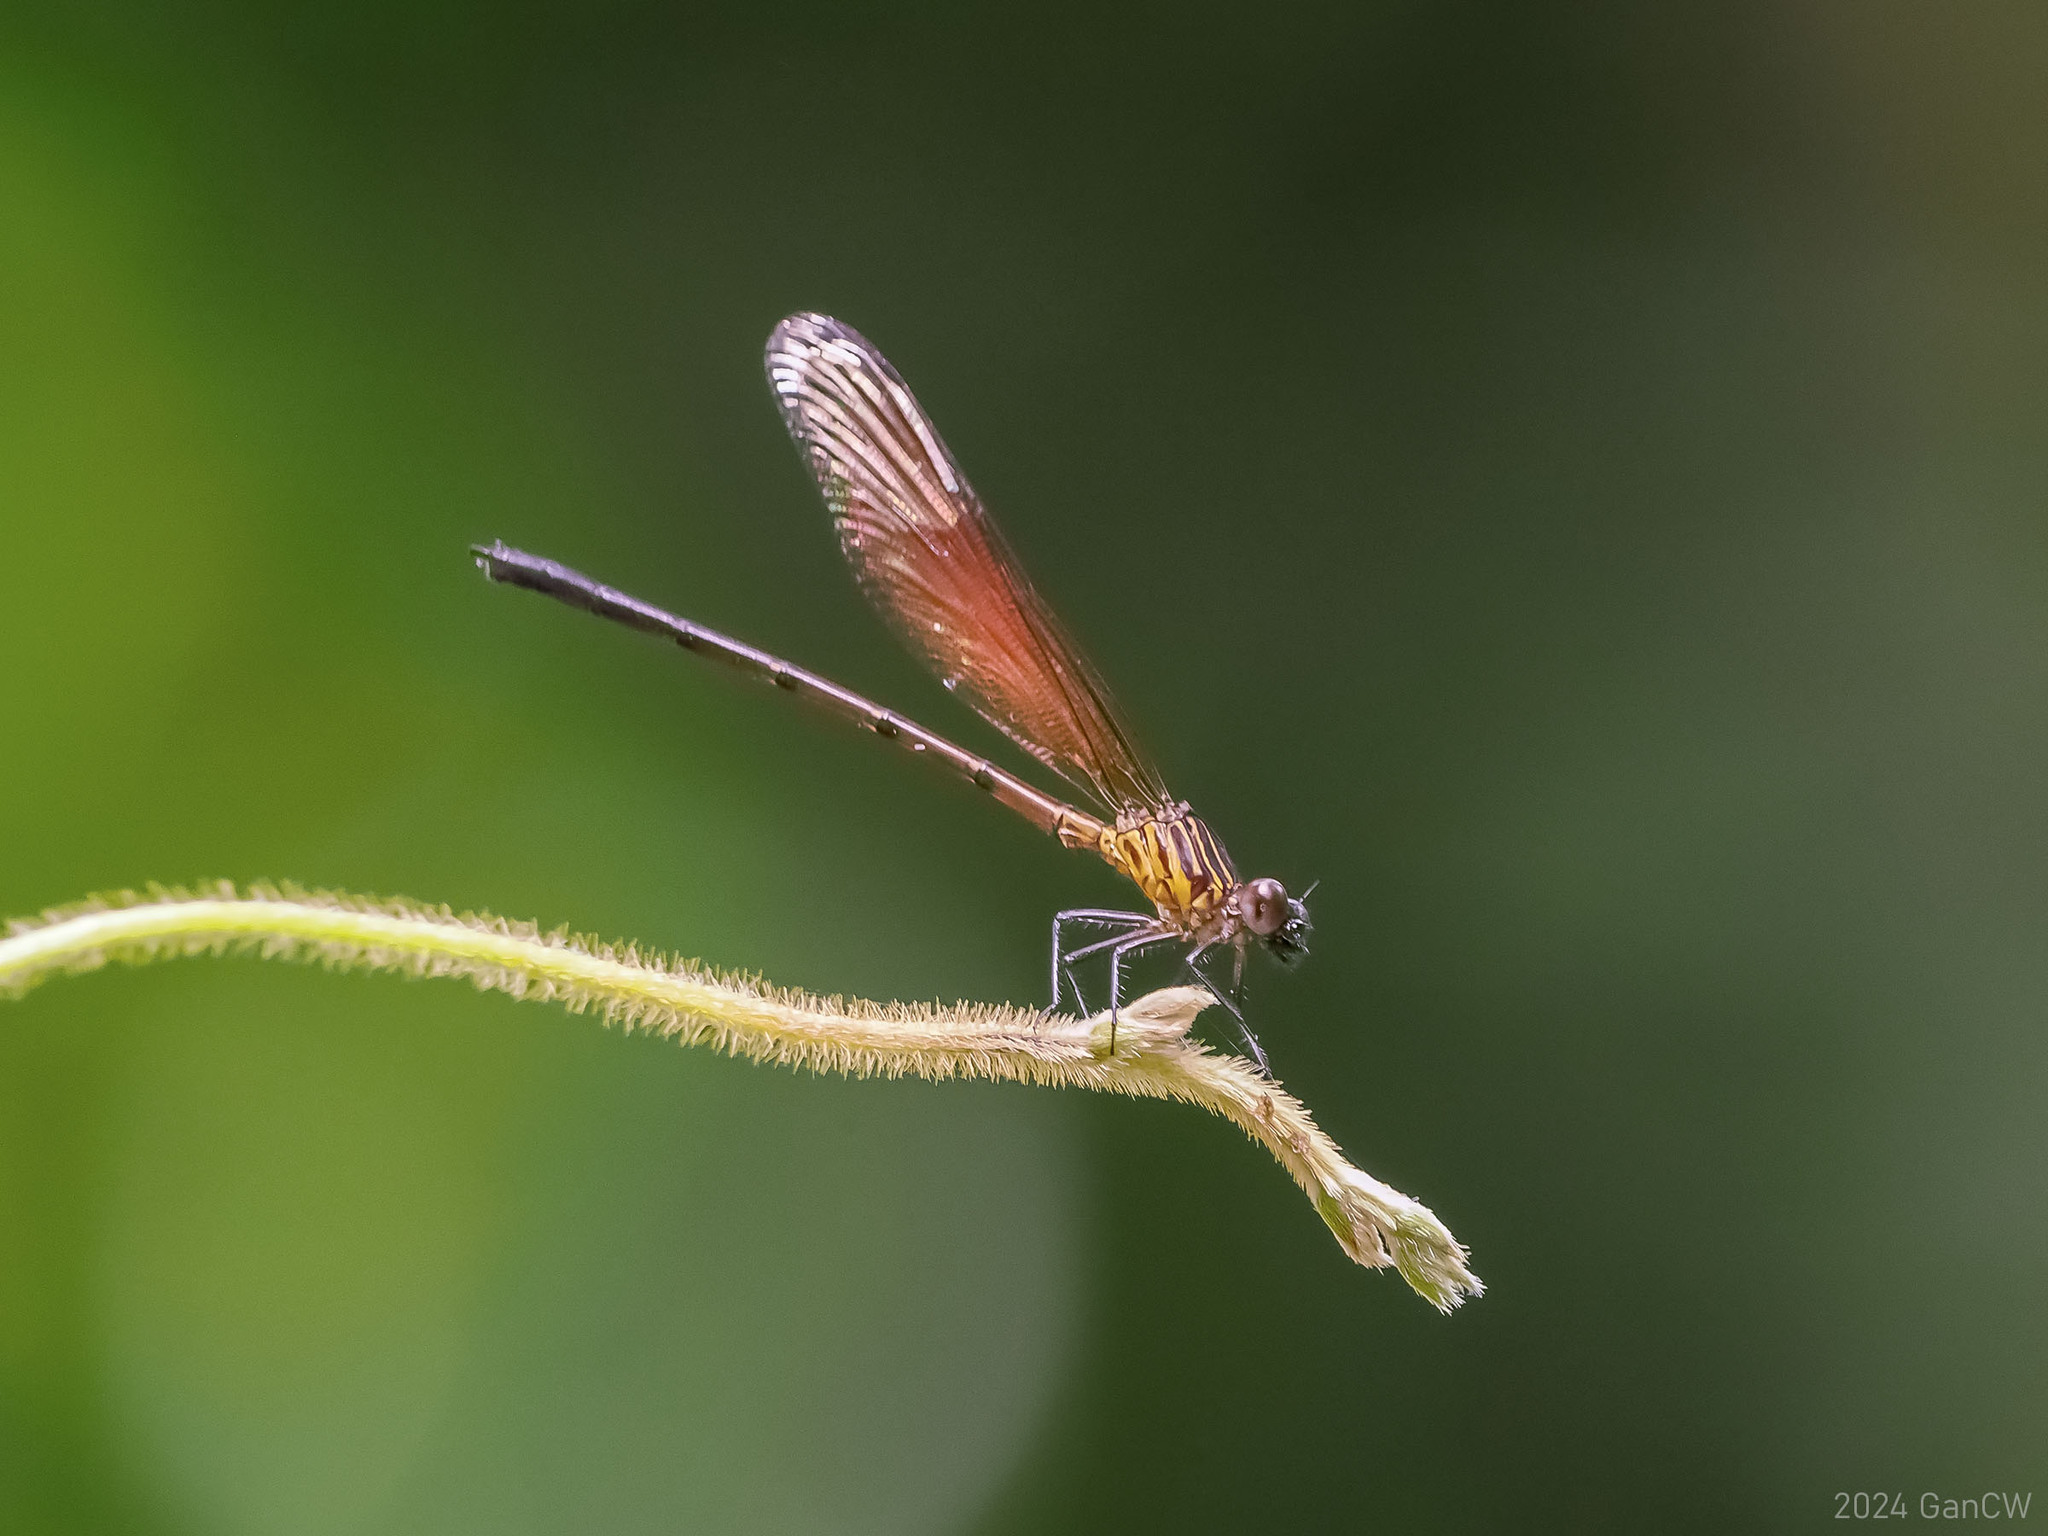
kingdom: Animalia
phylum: Arthropoda
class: Insecta
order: Odonata
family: Euphaeidae
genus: Euphaea
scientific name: Euphaea ochracea
